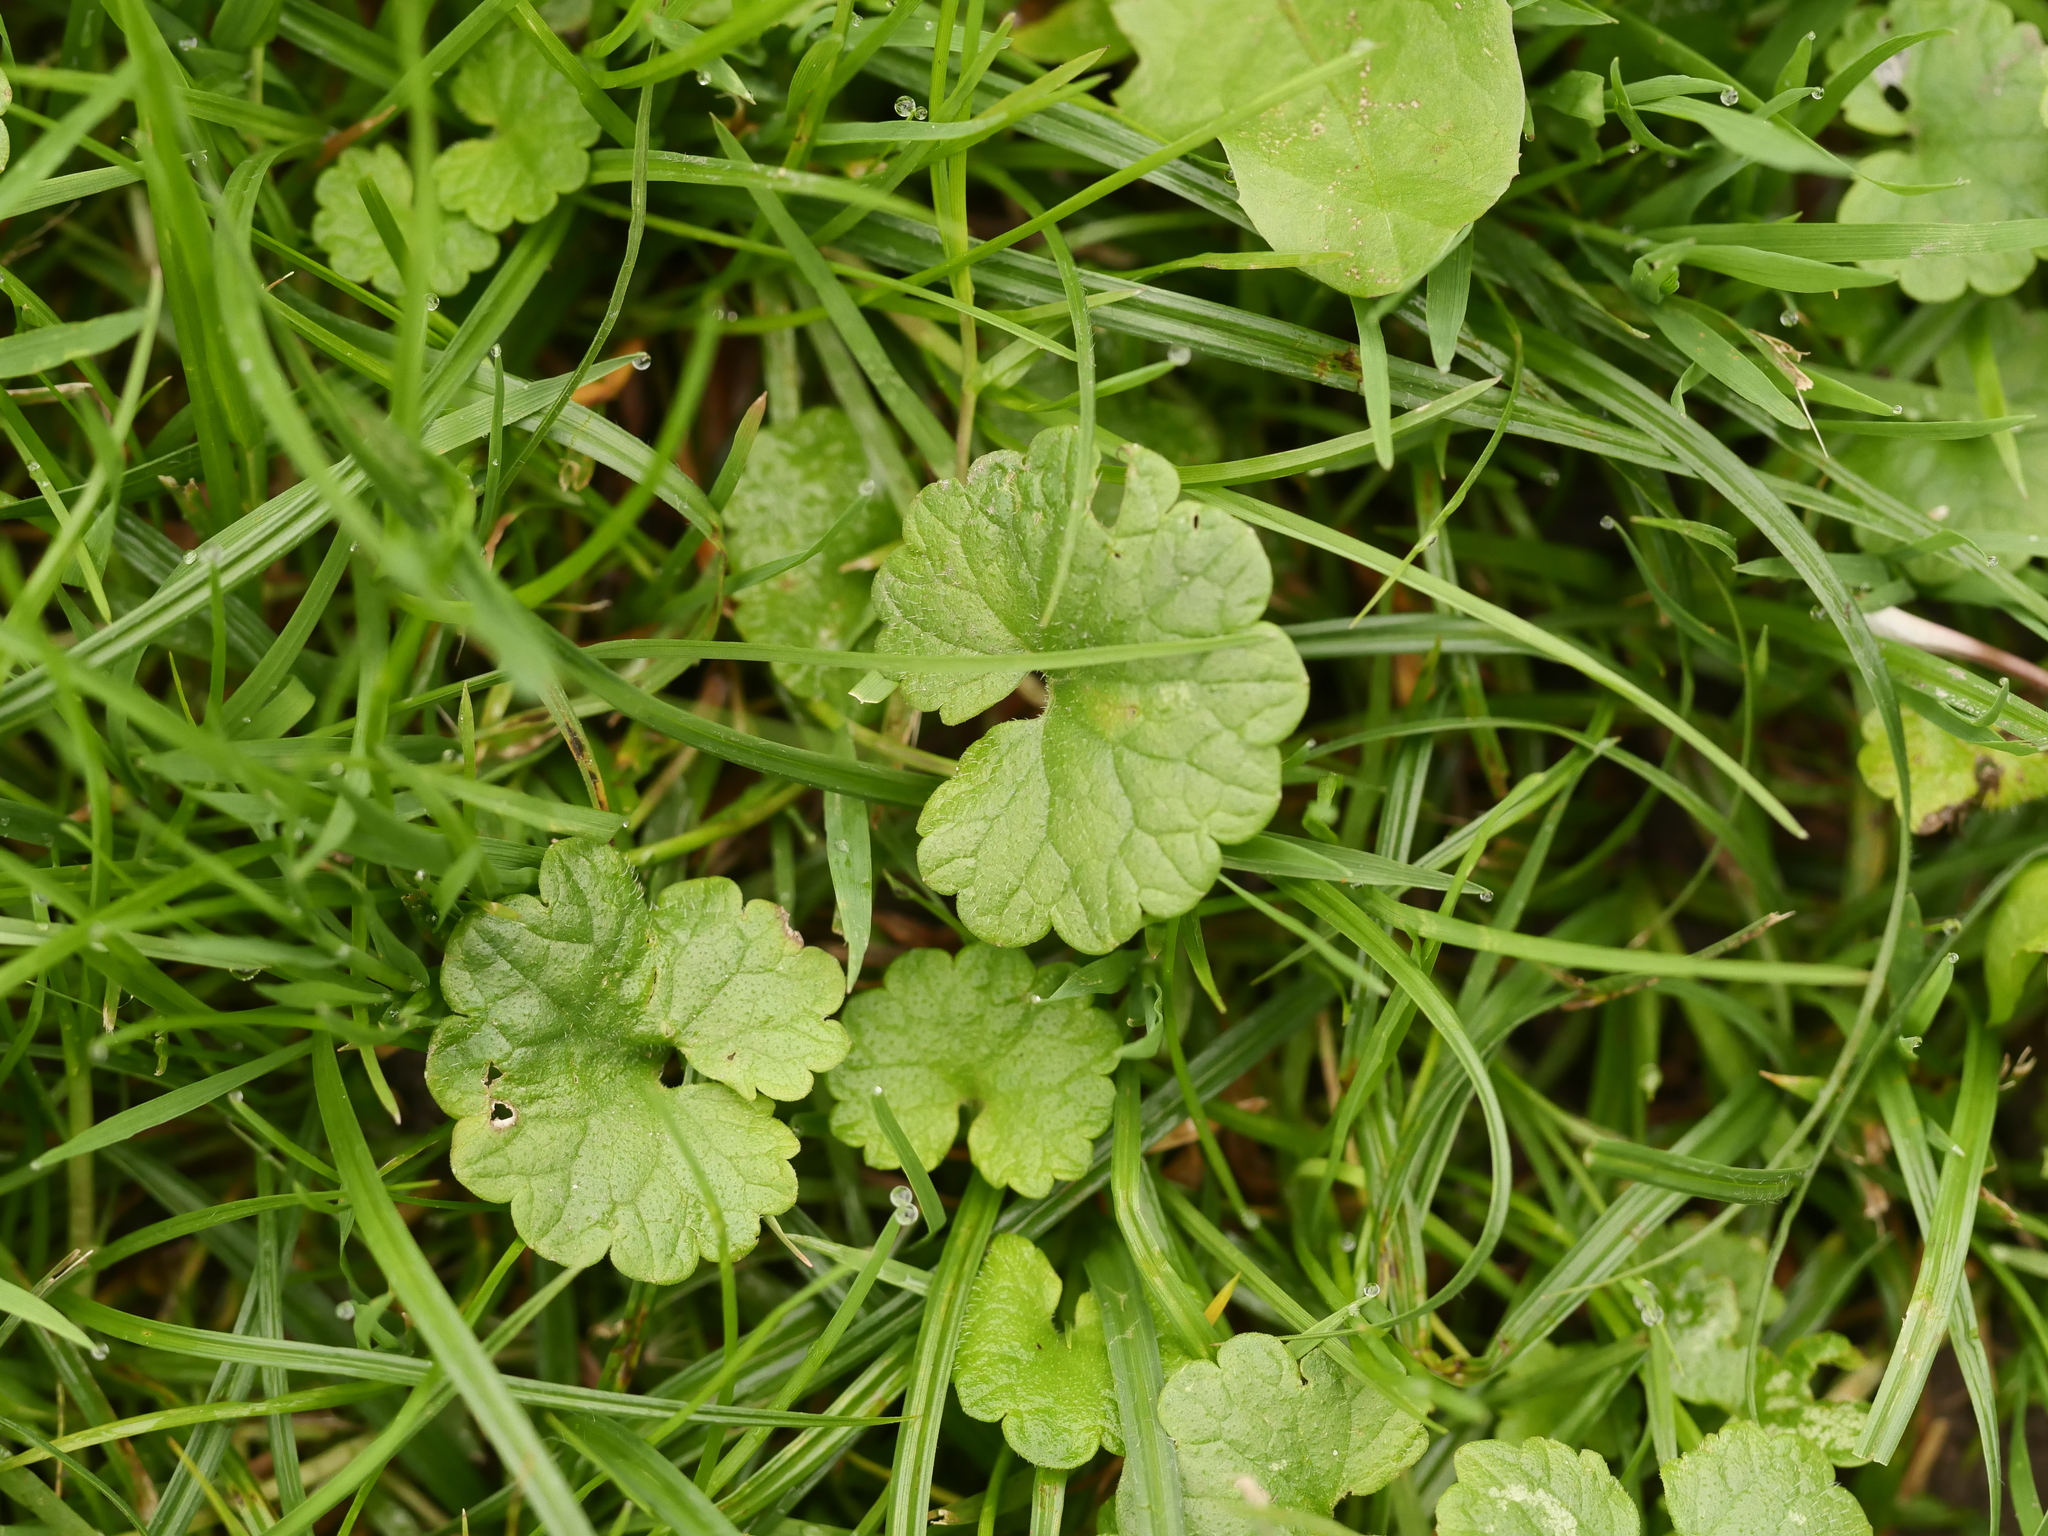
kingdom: Plantae
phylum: Tracheophyta
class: Magnoliopsida
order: Lamiales
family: Lamiaceae
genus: Glechoma
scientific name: Glechoma hederacea
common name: Ground ivy
